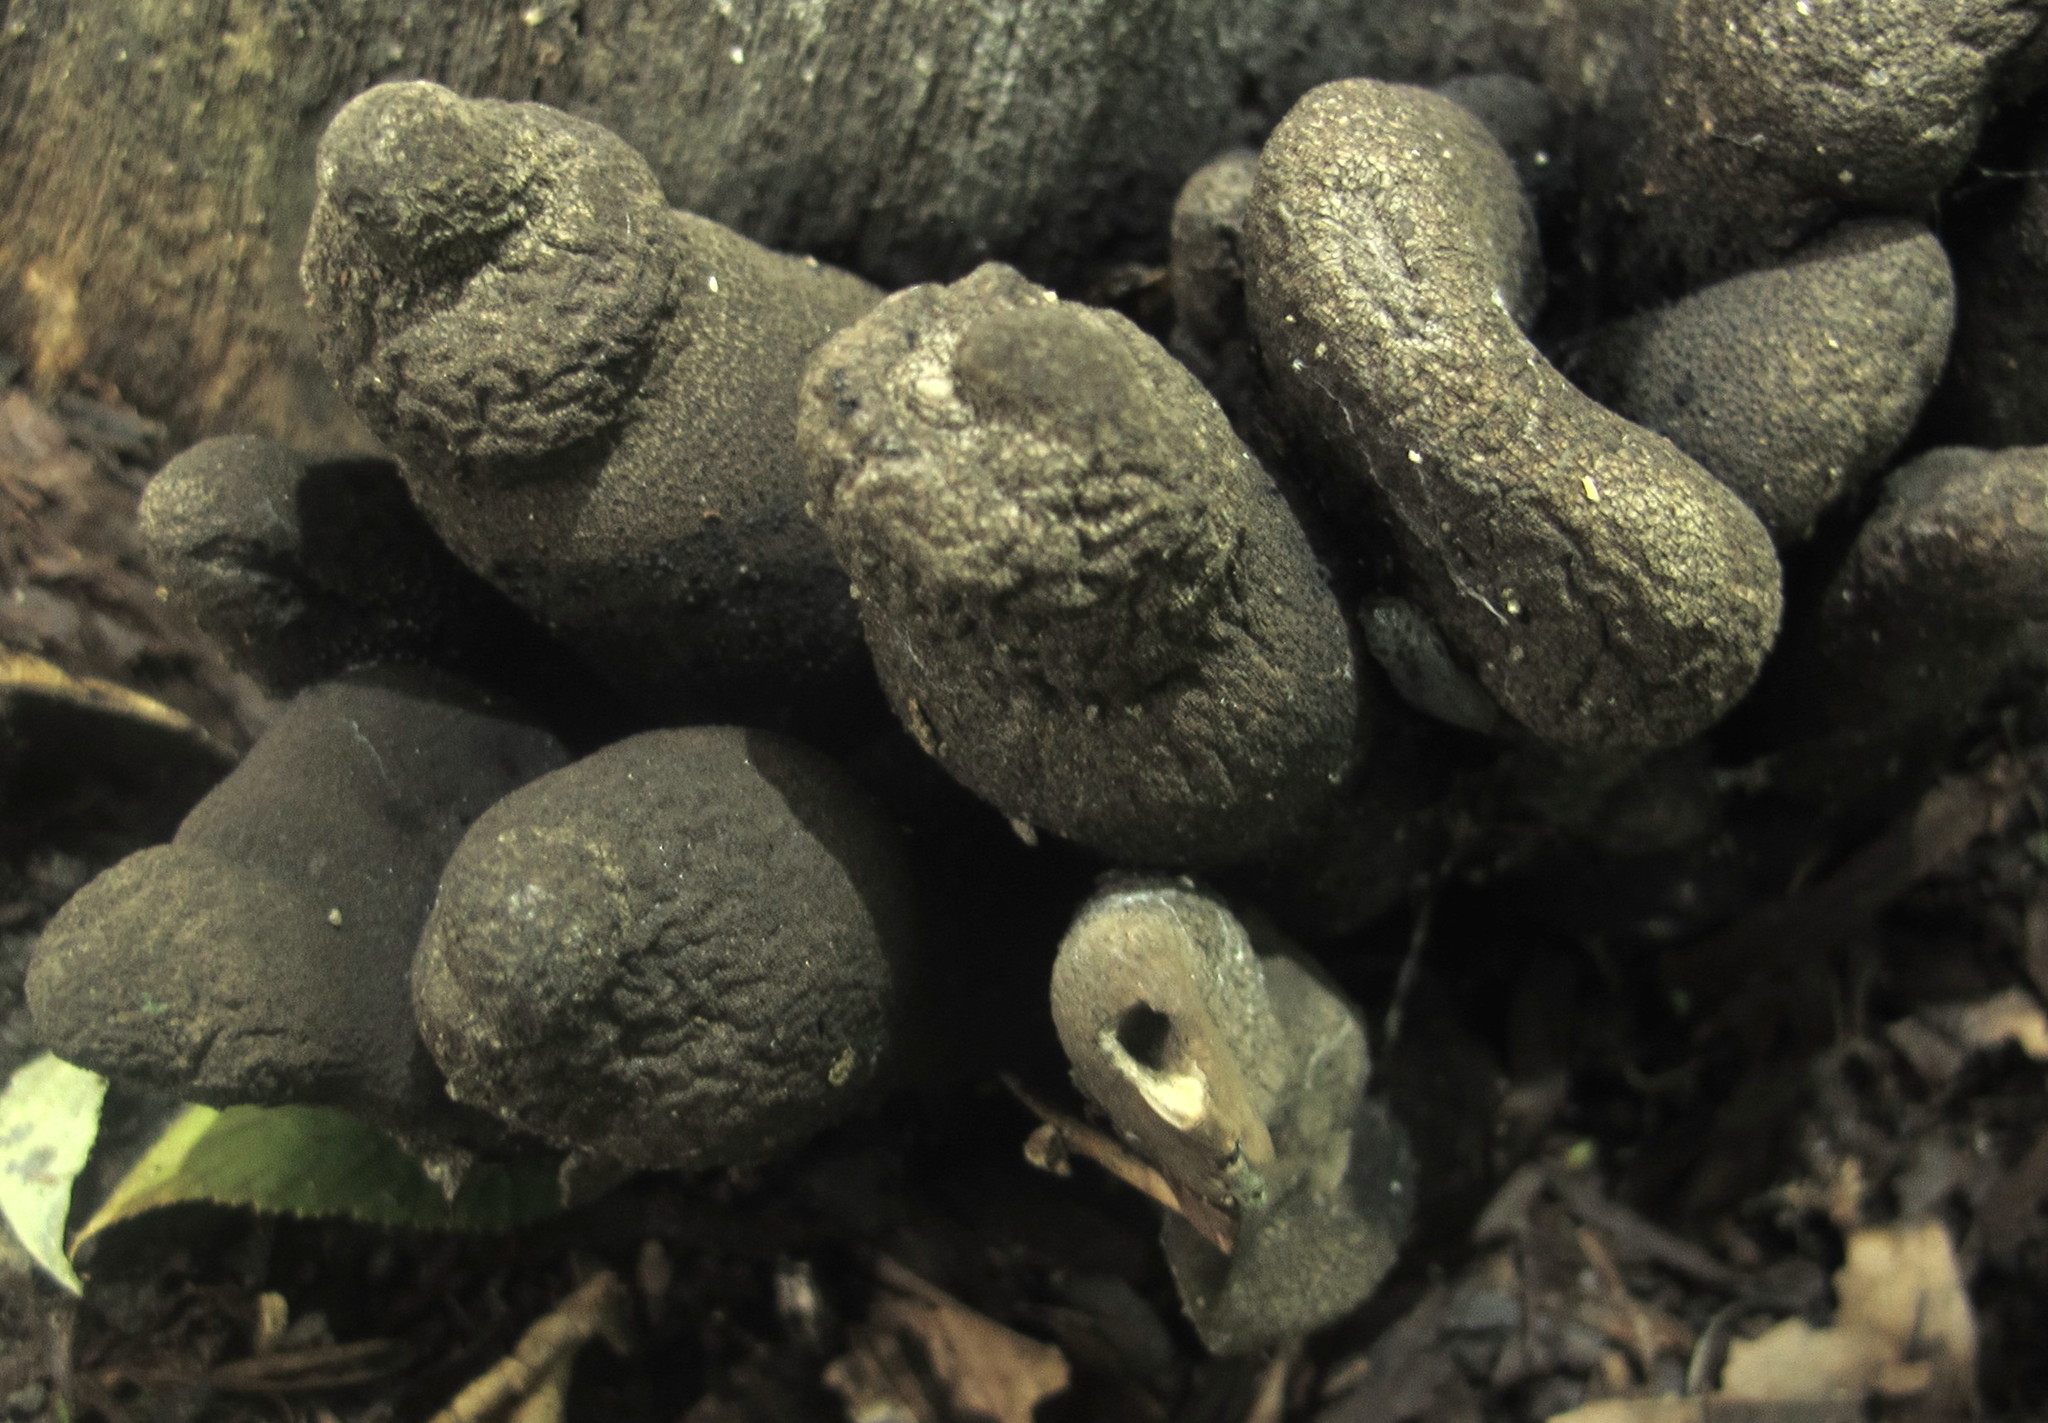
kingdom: Fungi
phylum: Ascomycota
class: Sordariomycetes
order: Xylariales
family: Xylariaceae
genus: Xylaria
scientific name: Xylaria polymorpha
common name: Dead man's fingers
